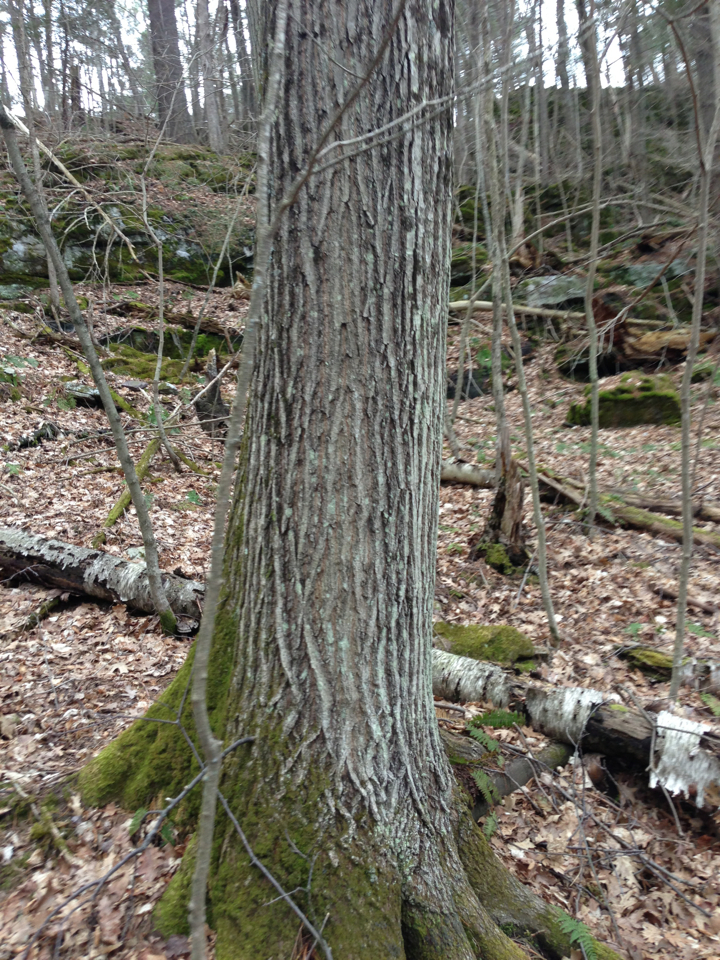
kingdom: Plantae
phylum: Tracheophyta
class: Magnoliopsida
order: Fagales
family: Fagaceae
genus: Quercus
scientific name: Quercus rubra
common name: Red oak
